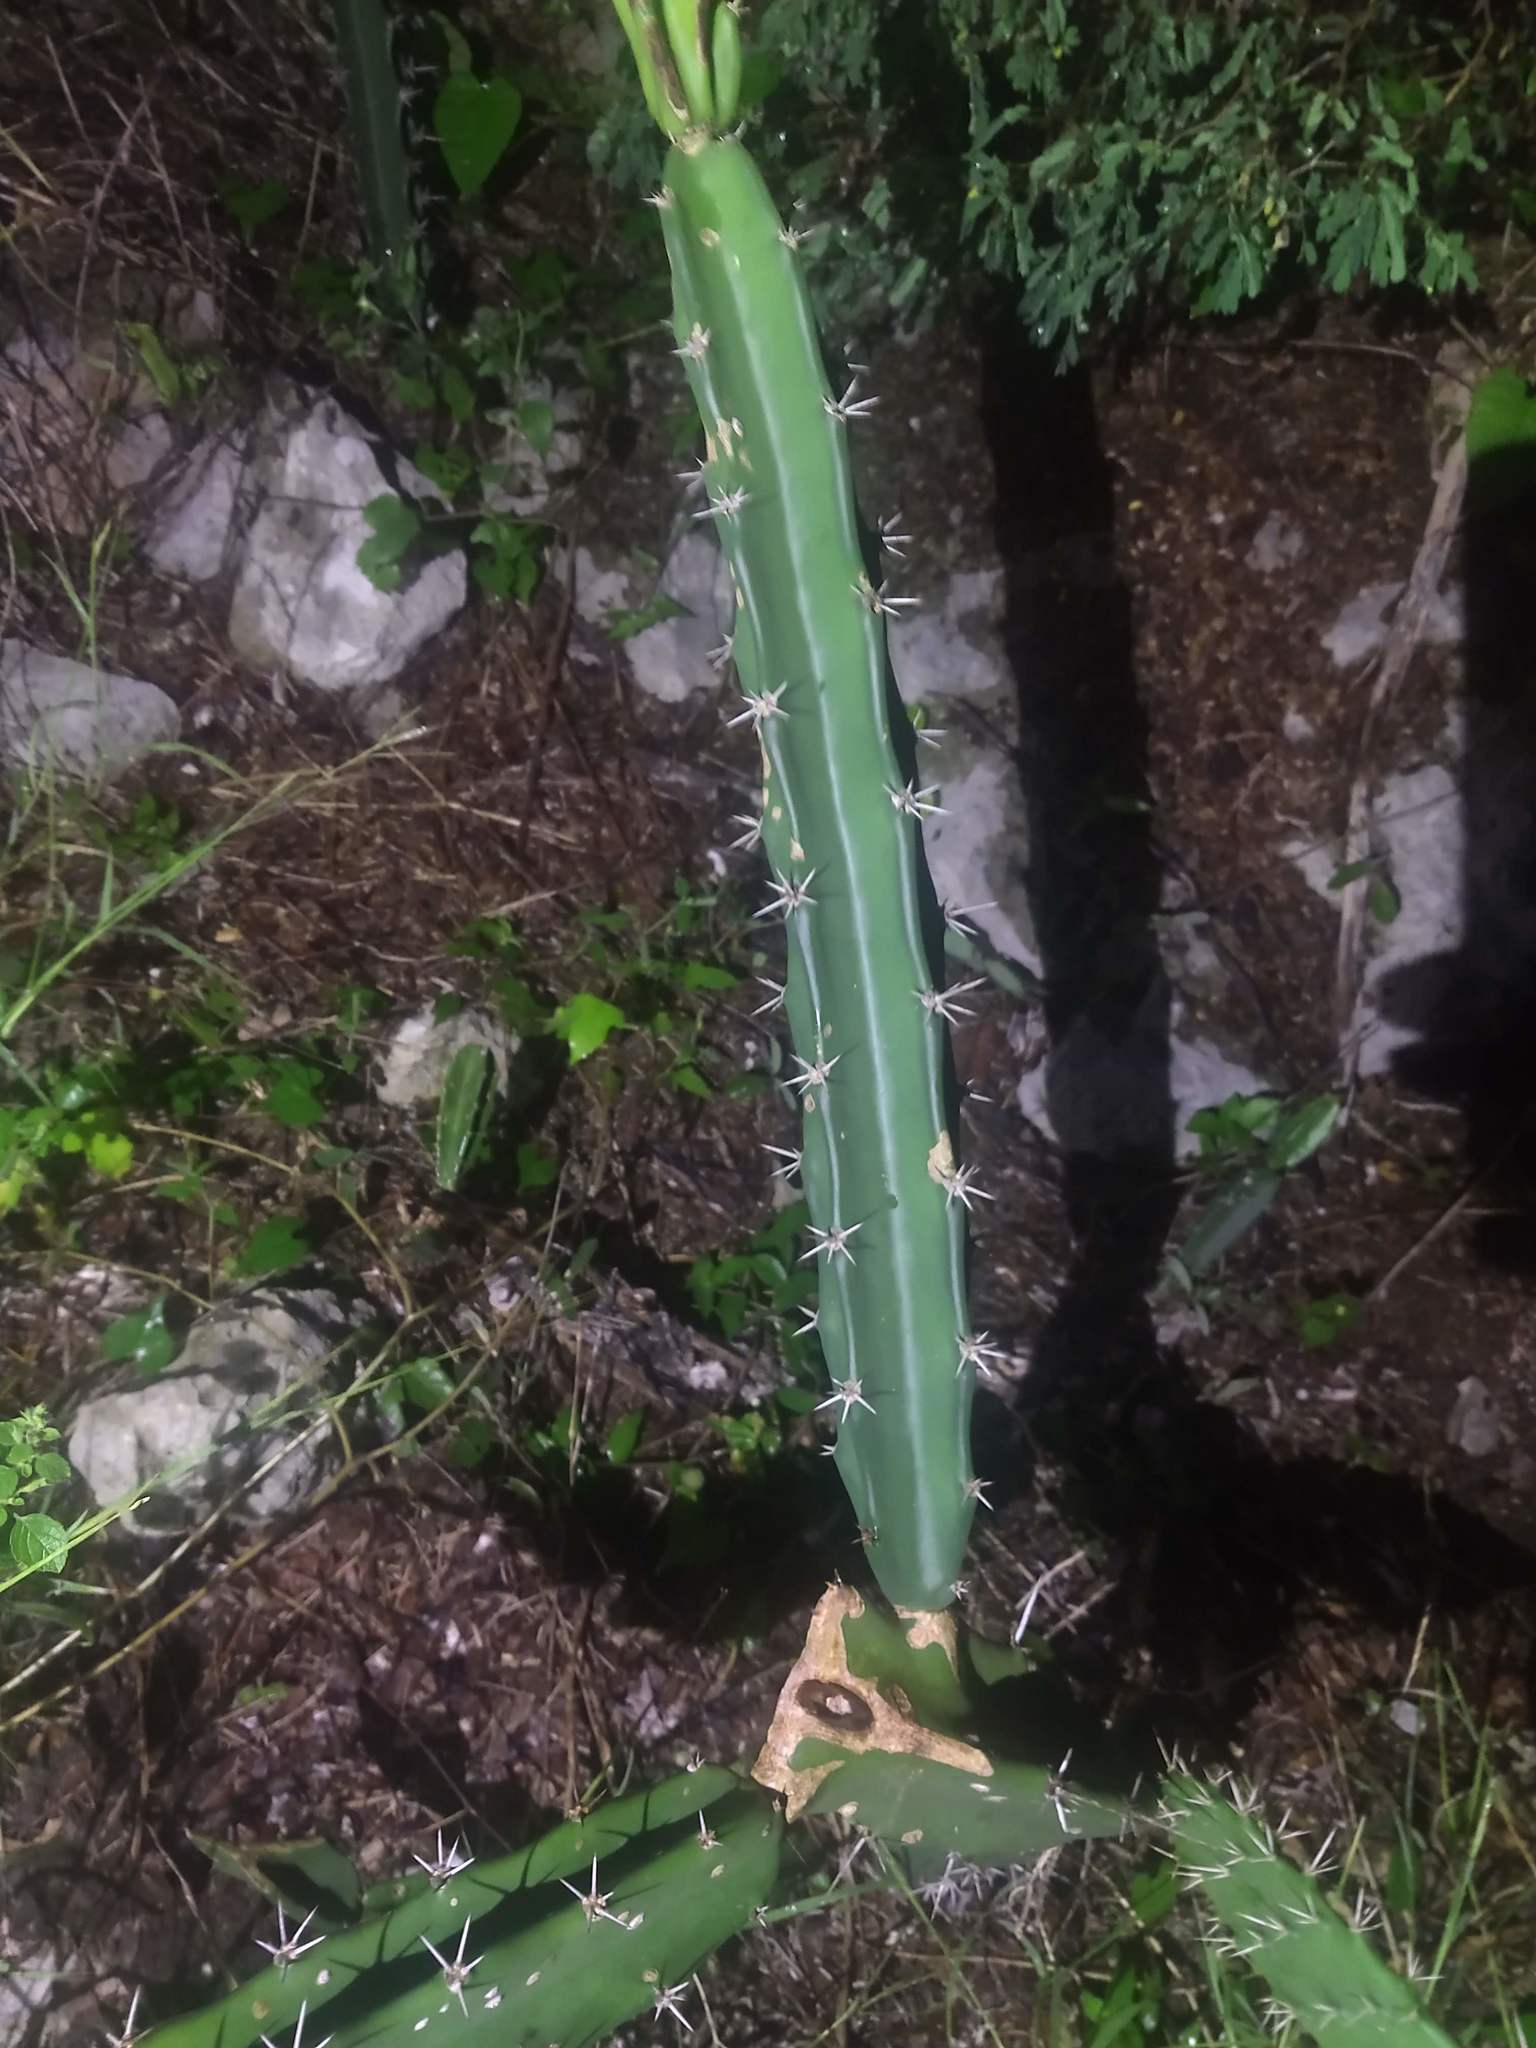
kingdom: Plantae
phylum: Tracheophyta
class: Magnoliopsida
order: Caryophyllales
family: Cactaceae
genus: Acanthocereus
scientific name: Acanthocereus tetragonus
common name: Triangle cactus
